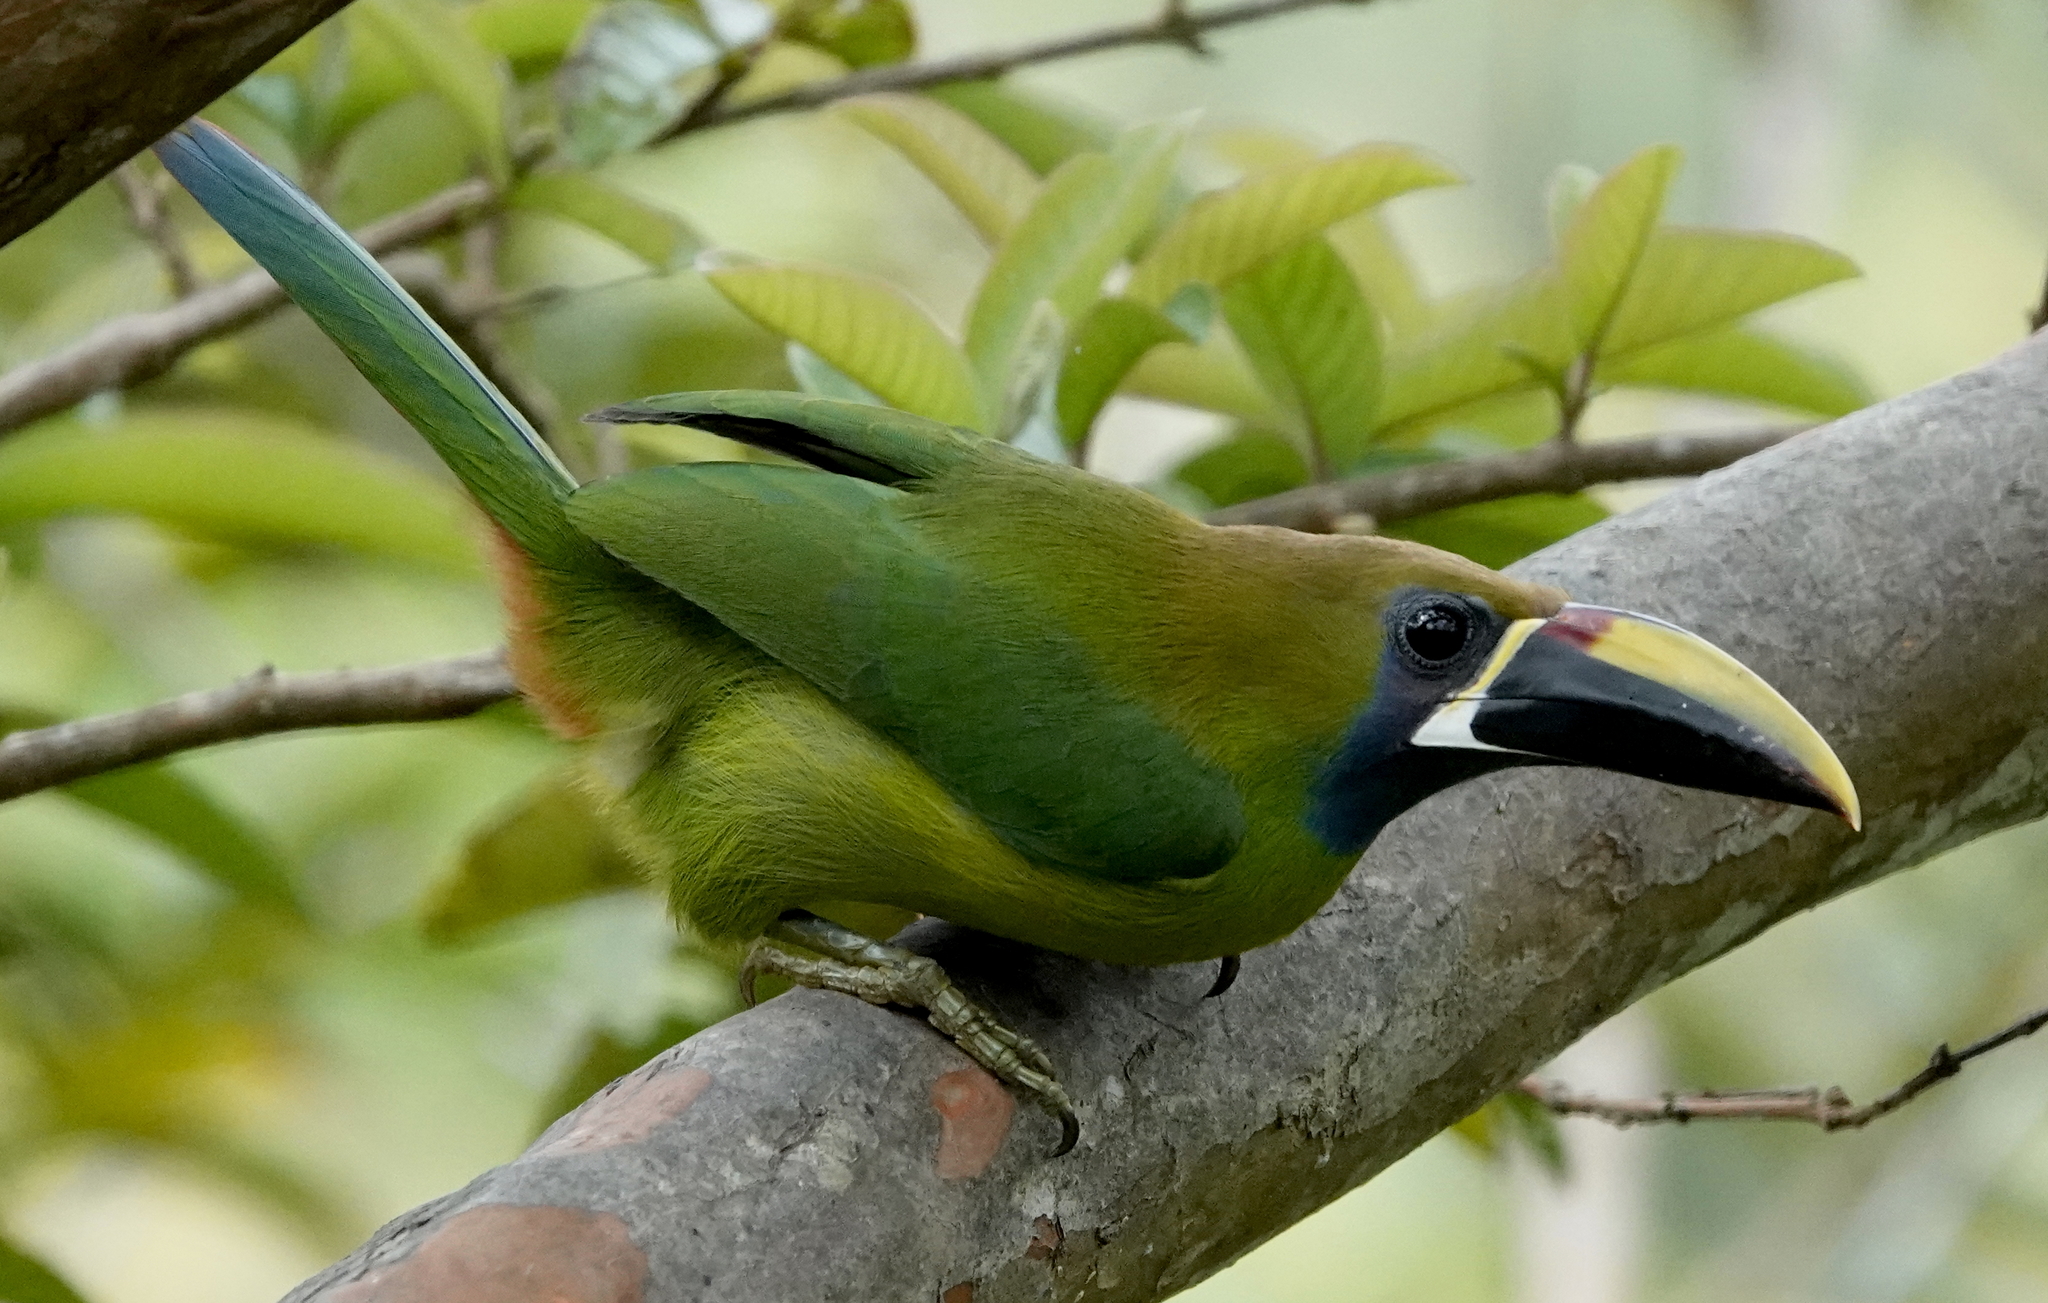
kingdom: Animalia
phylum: Chordata
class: Aves
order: Piciformes
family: Ramphastidae
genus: Aulacorhynchus
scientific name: Aulacorhynchus prasinus
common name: Emerald toucanet
